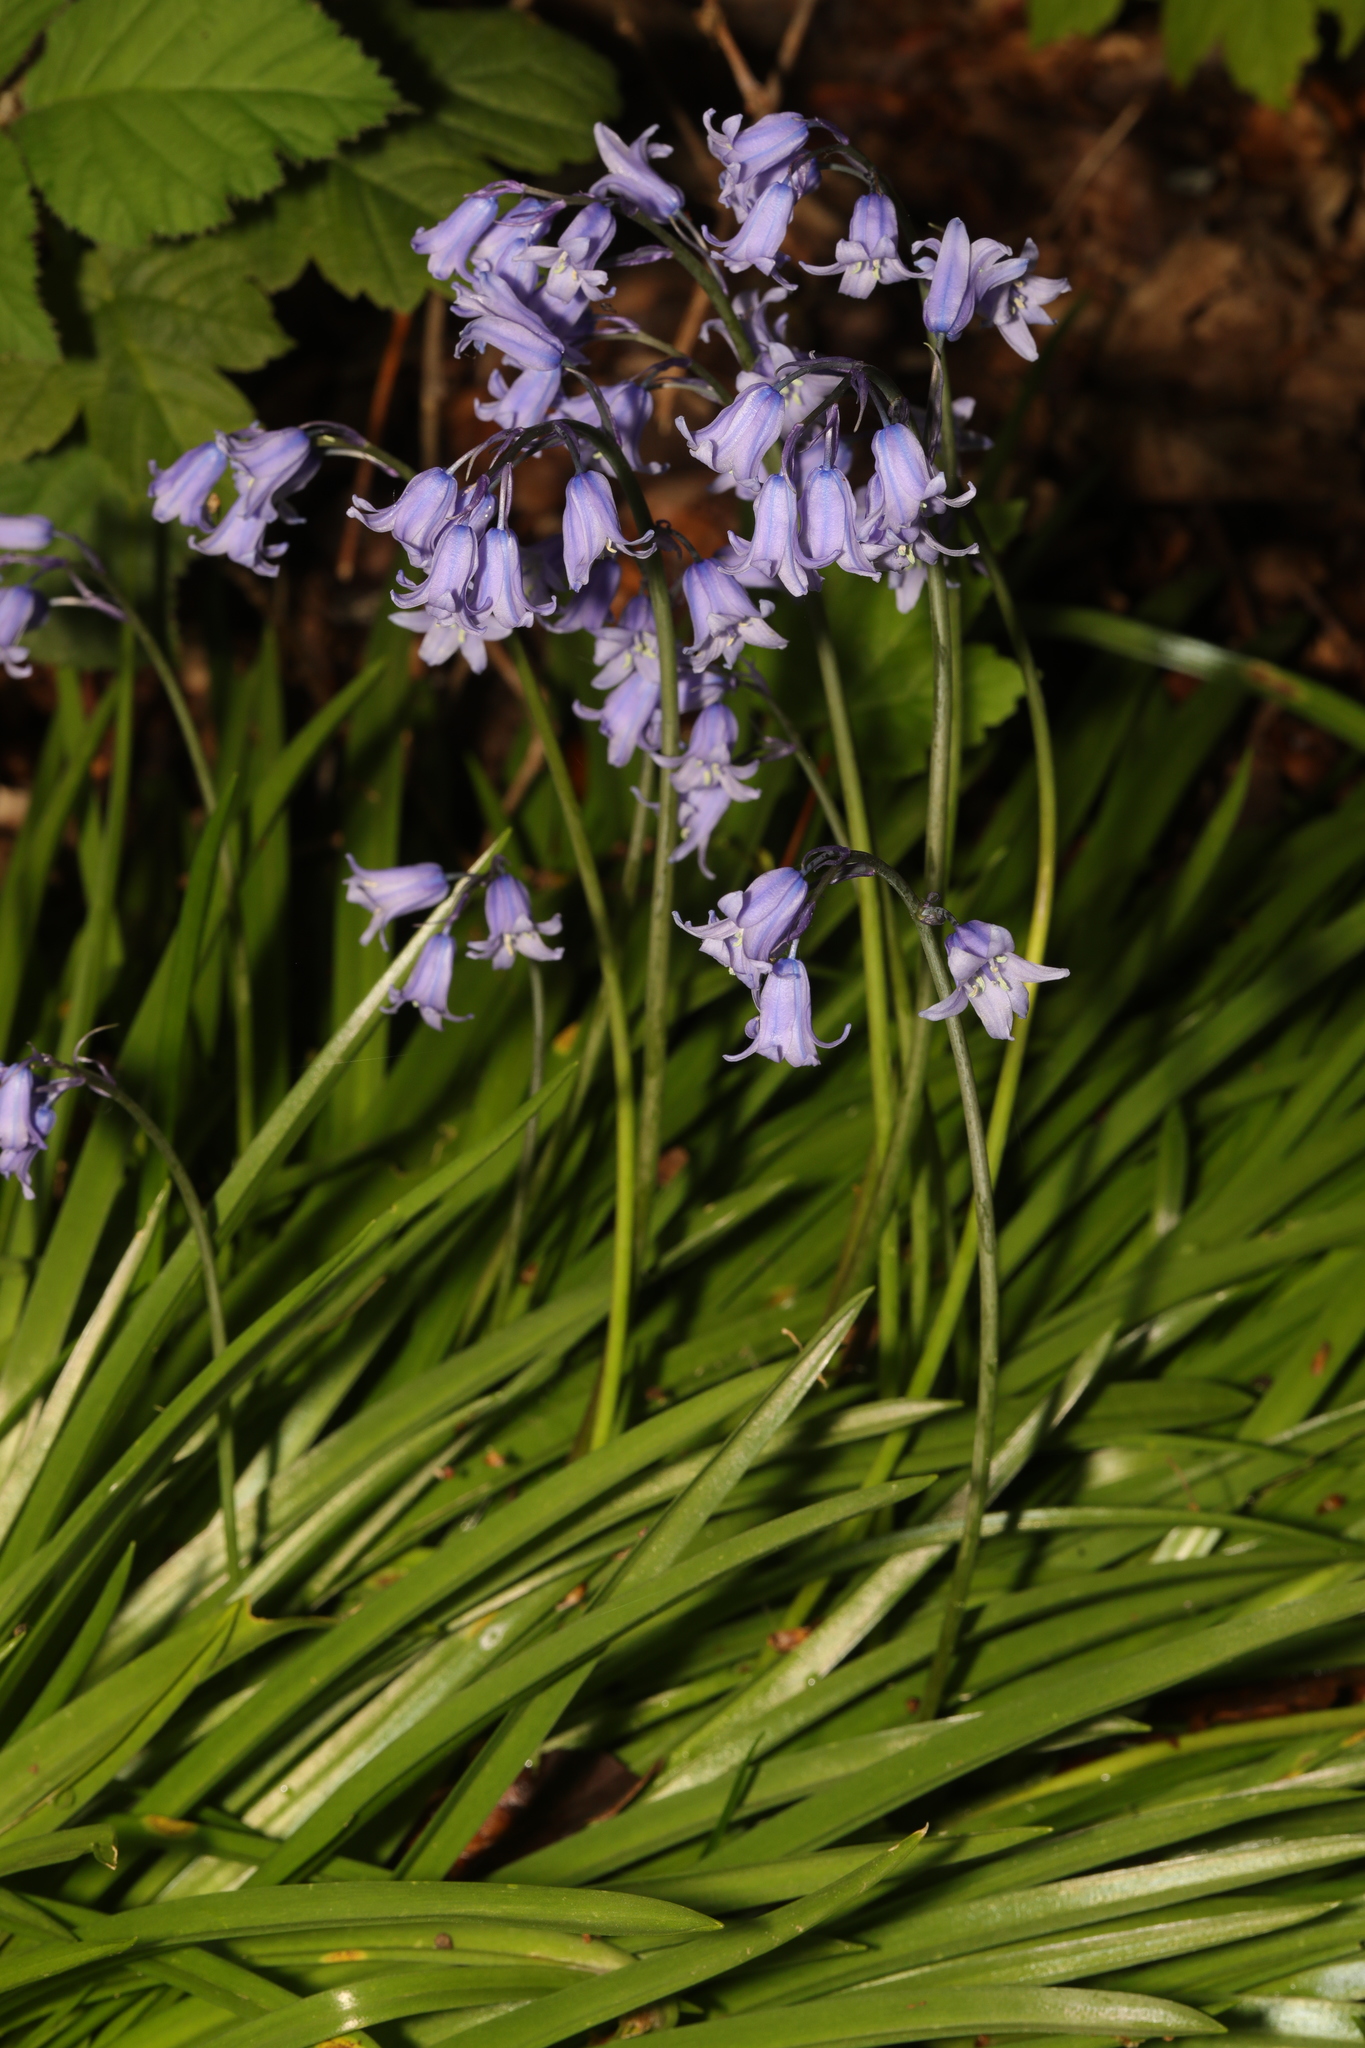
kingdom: Plantae
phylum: Tracheophyta
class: Liliopsida
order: Asparagales
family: Asparagaceae
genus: Hyacinthoides
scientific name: Hyacinthoides hispanica
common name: Spanish bluebell
